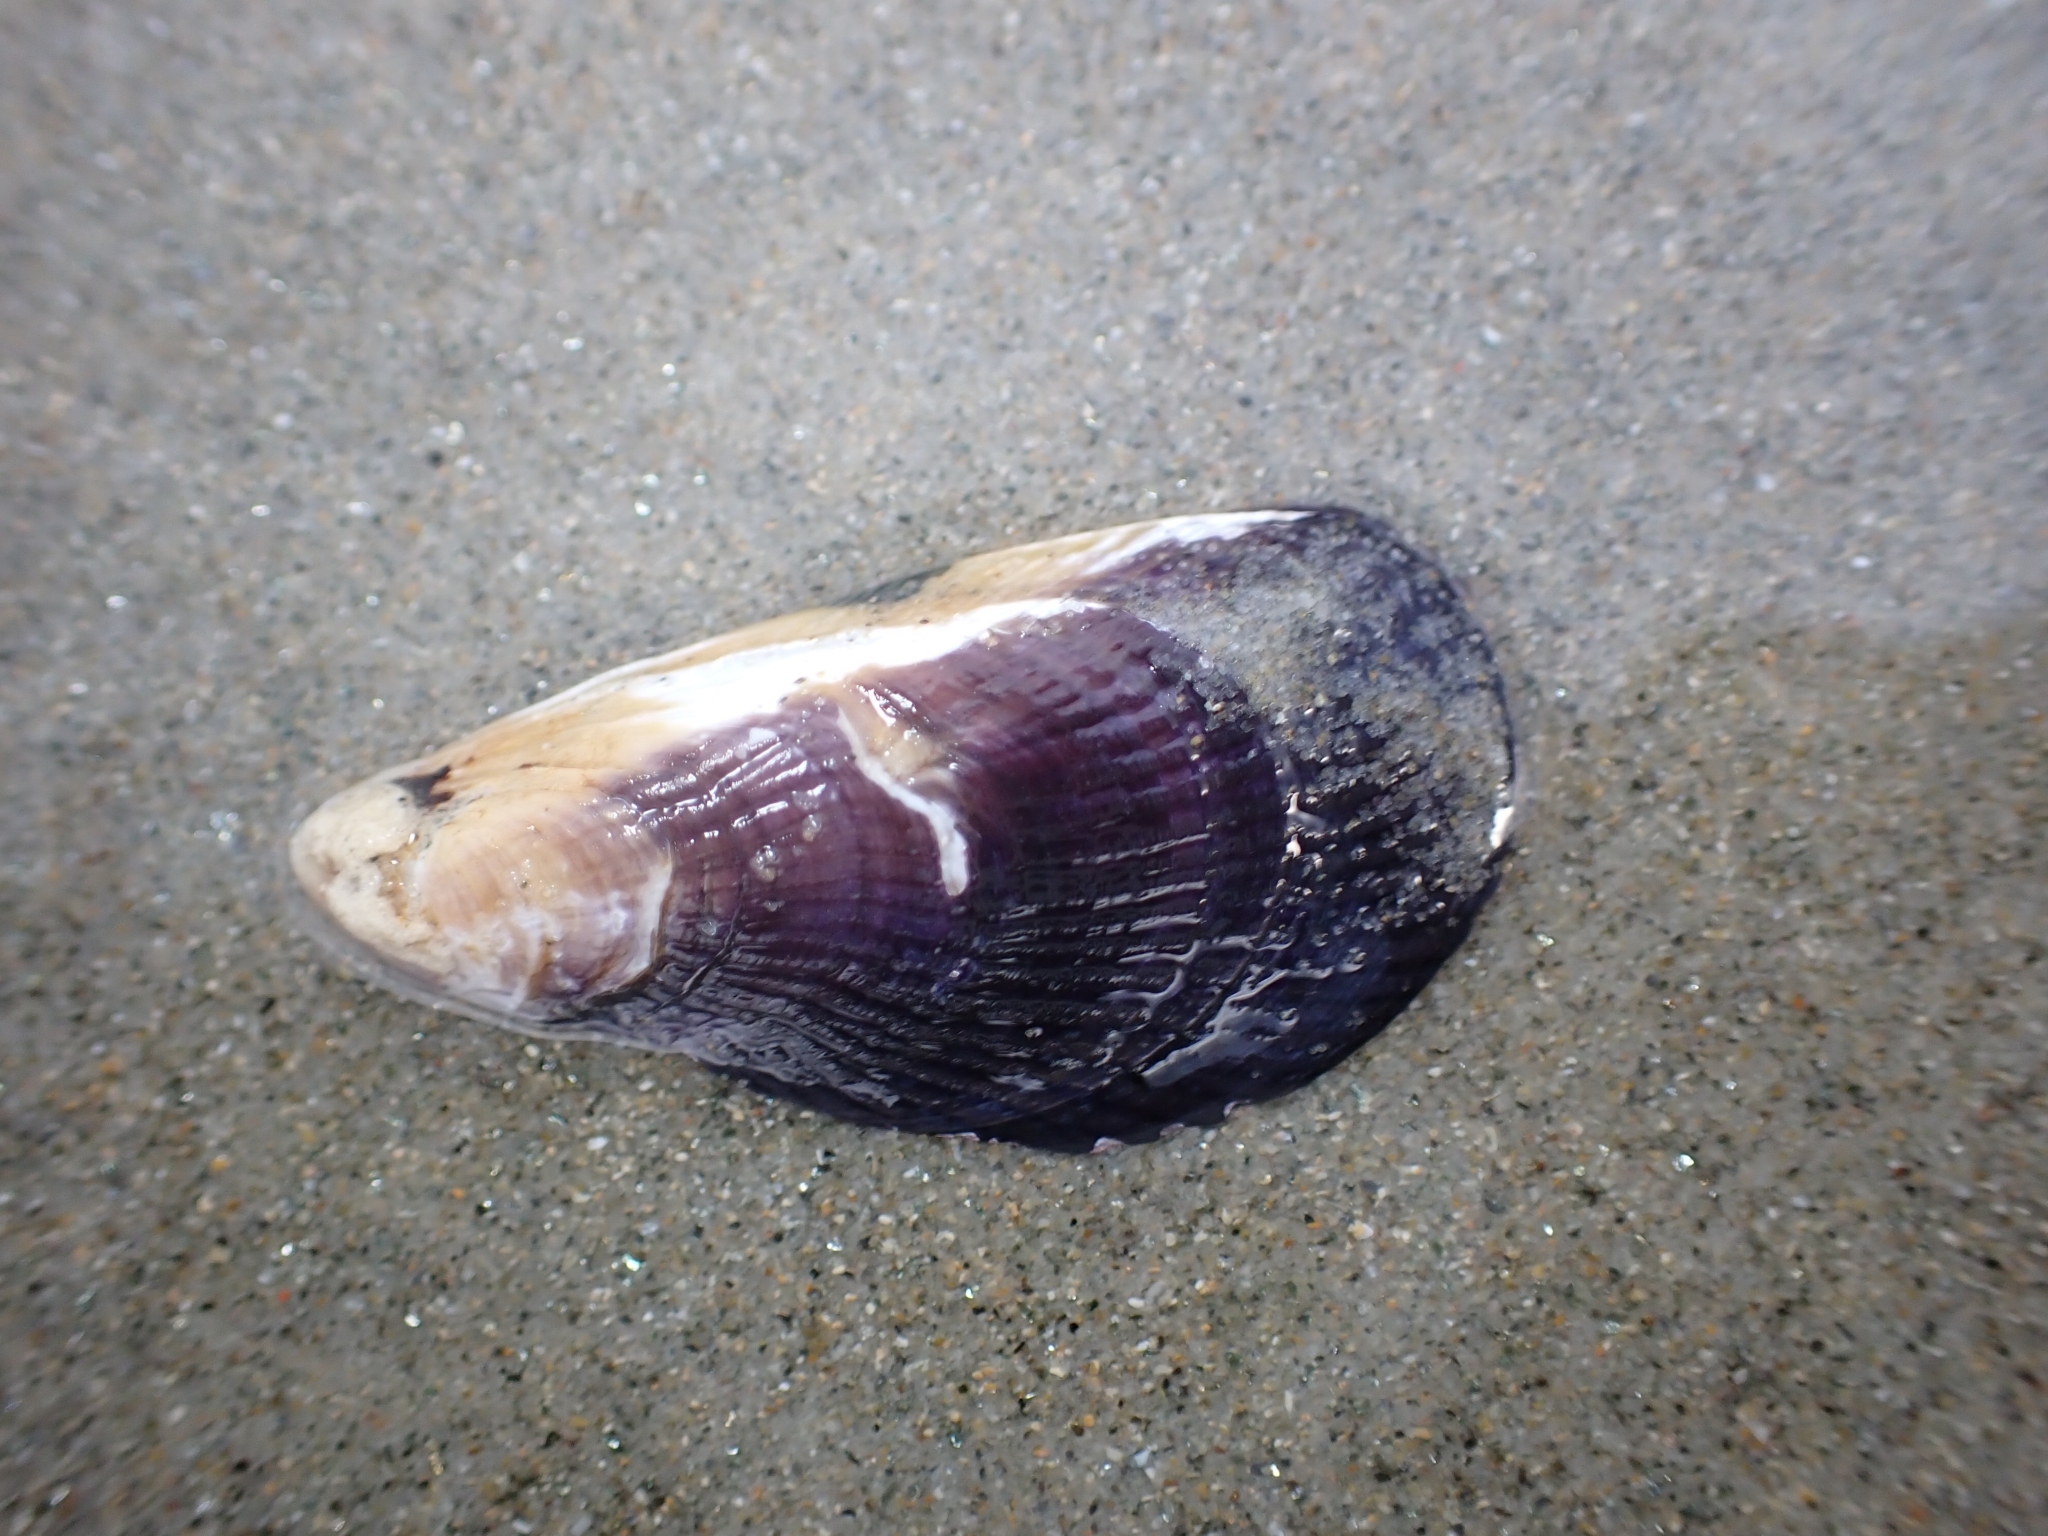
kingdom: Animalia
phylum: Mollusca
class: Bivalvia
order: Mytilida
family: Mytilidae
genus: Aulacomya
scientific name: Aulacomya maoriana
